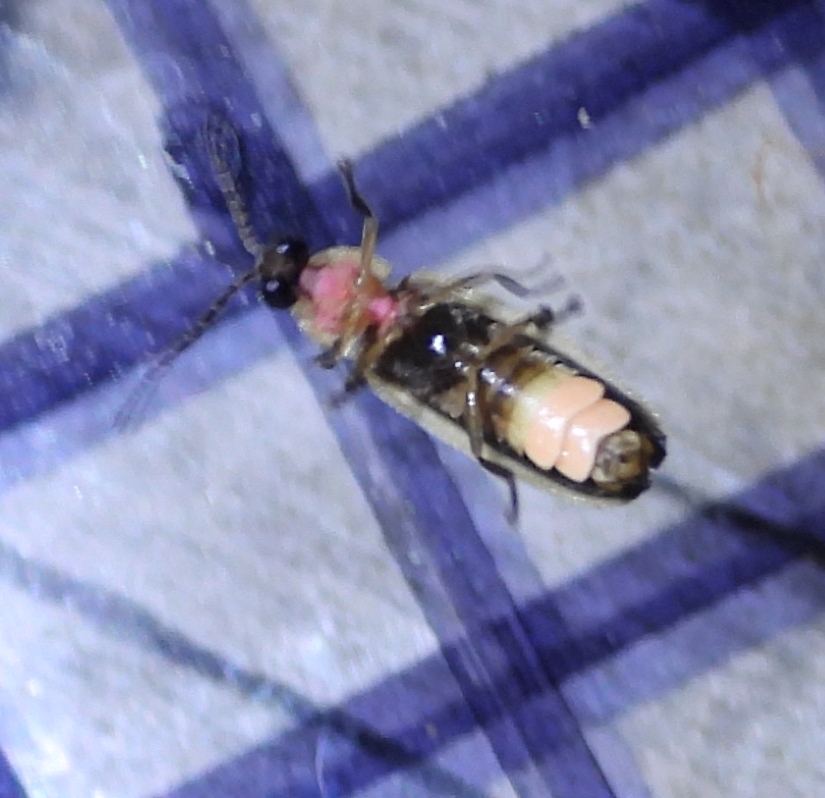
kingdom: Animalia
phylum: Arthropoda
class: Insecta
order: Coleoptera
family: Lampyridae
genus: Photinus
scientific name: Photinus sabulosus
